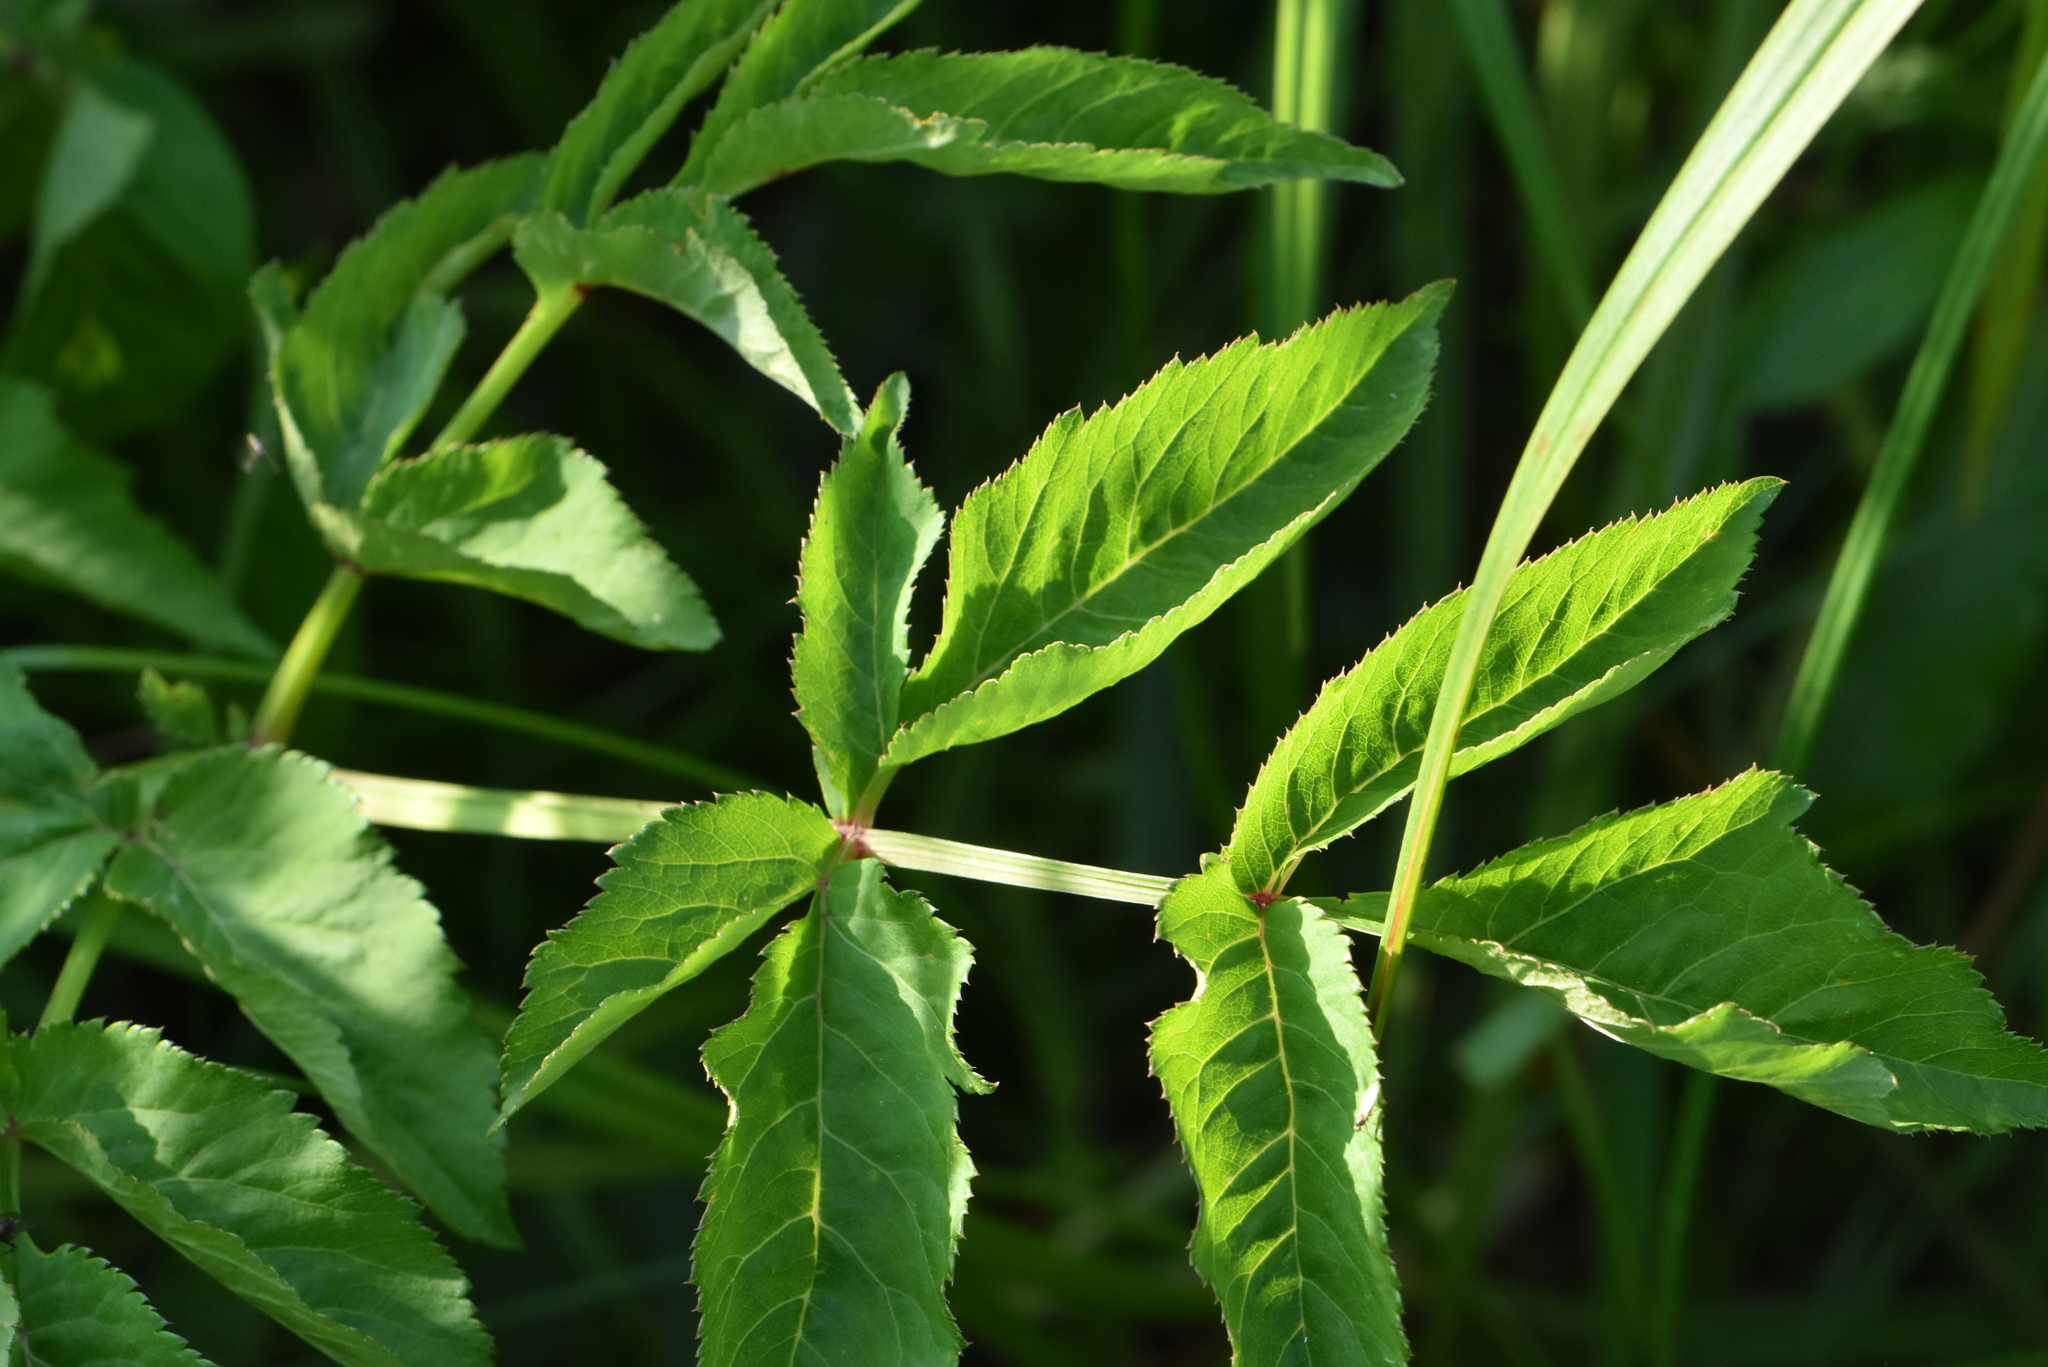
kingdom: Plantae
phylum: Tracheophyta
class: Magnoliopsida
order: Apiales
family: Apiaceae
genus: Angelica
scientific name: Angelica sylvestris
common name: Wild angelica
